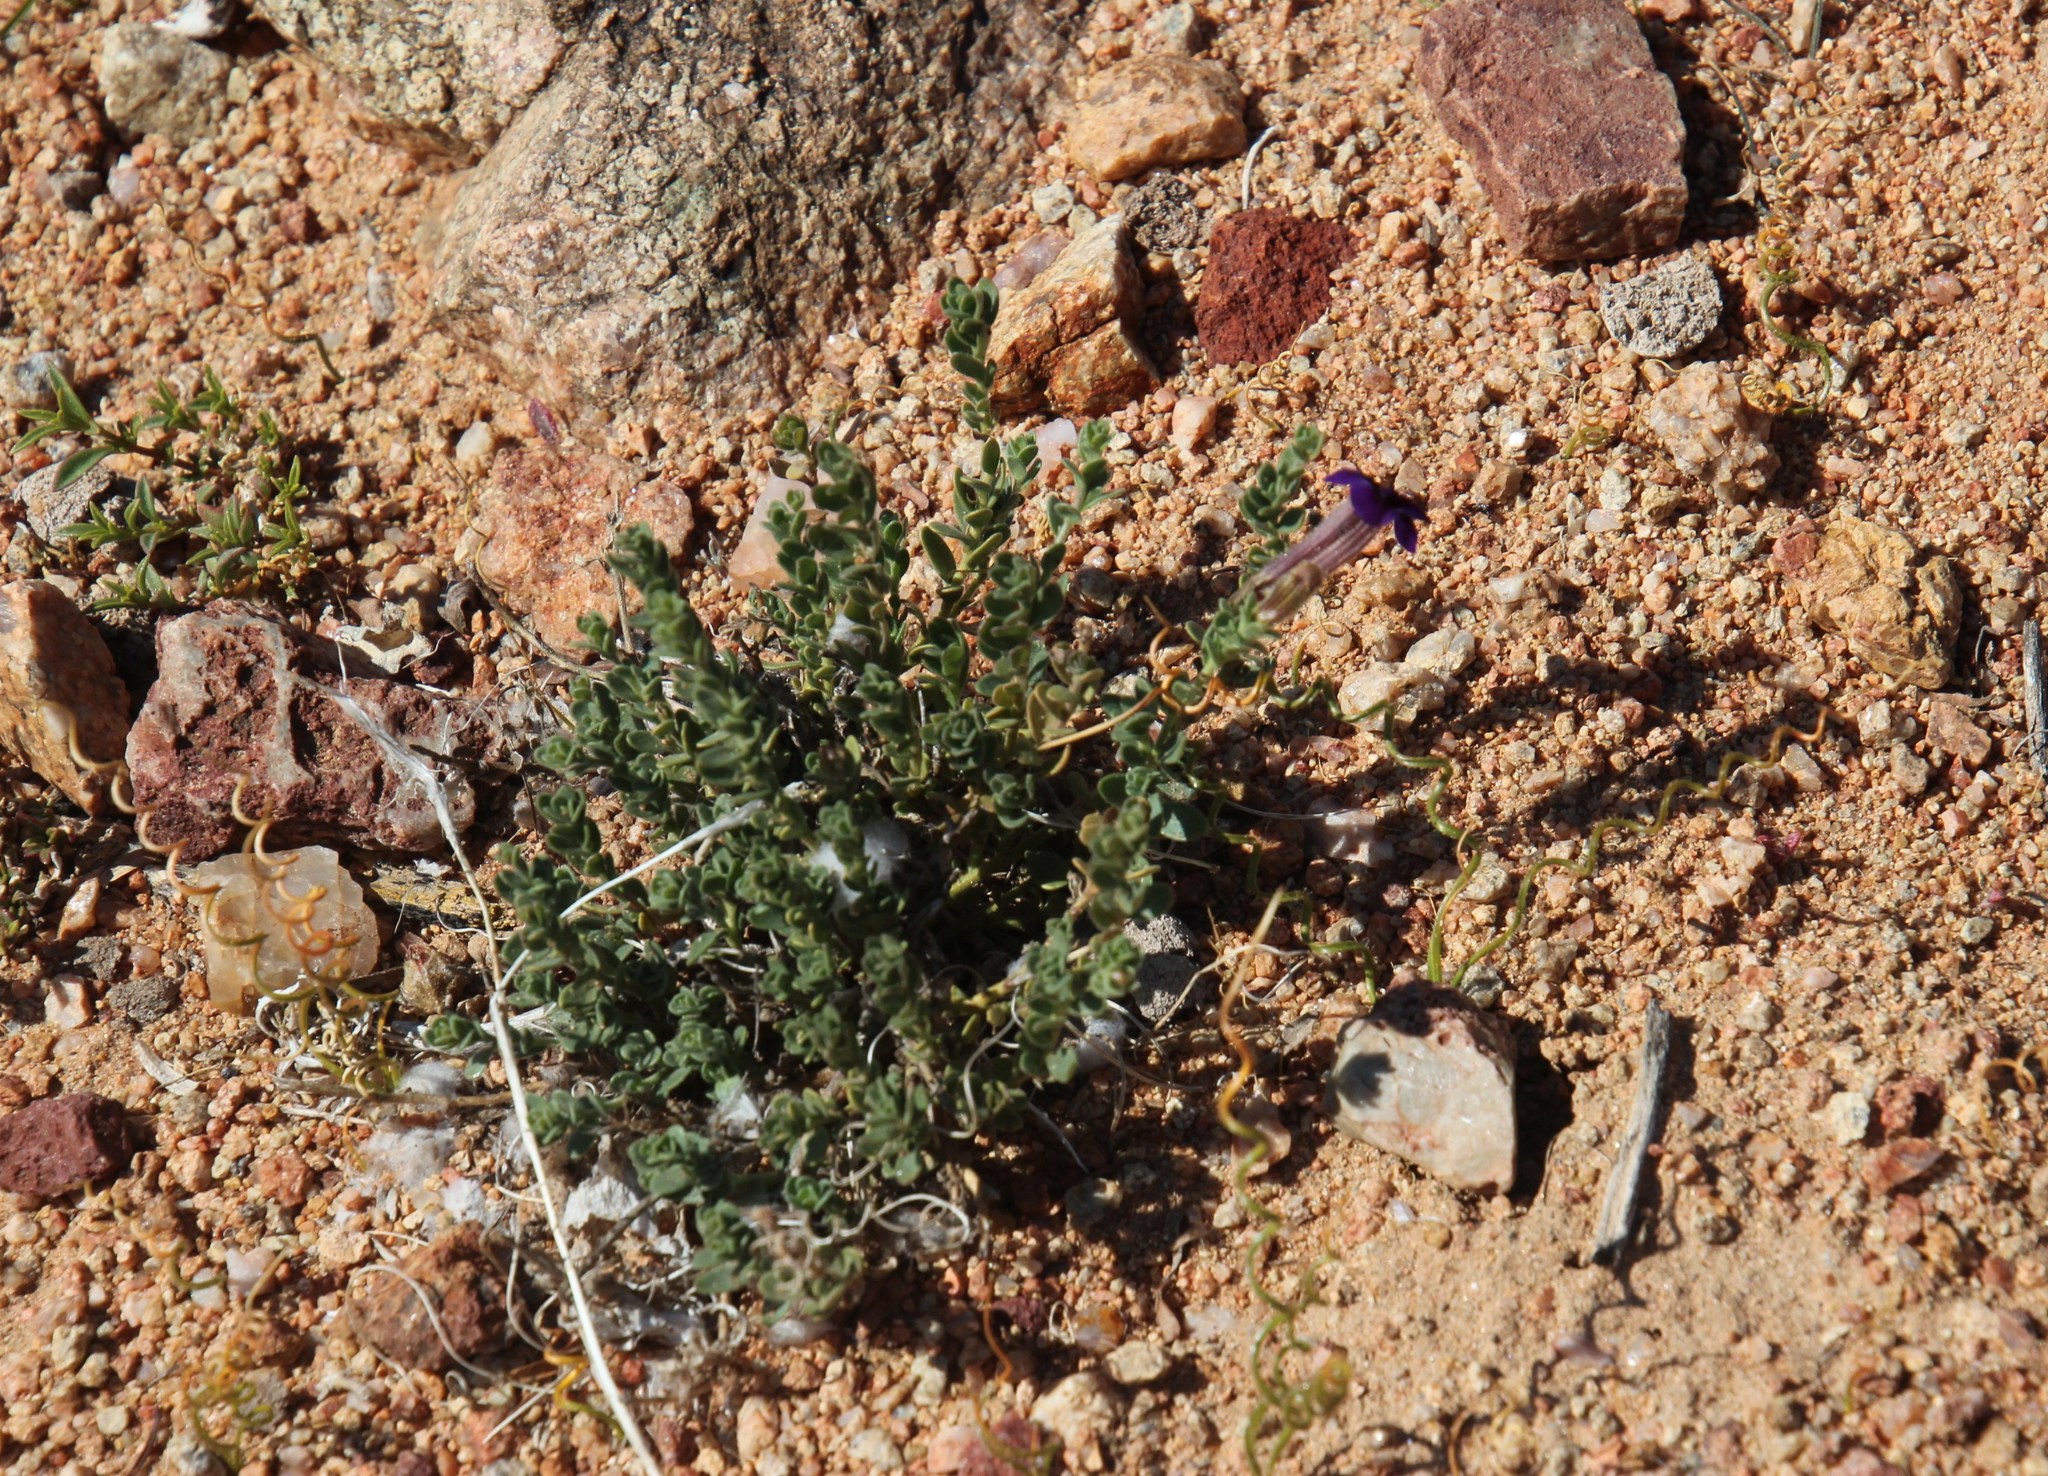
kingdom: Plantae
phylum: Tracheophyta
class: Magnoliopsida
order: Lamiales
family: Scrophulariaceae
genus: Peliostomum
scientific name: Peliostomum virgatum
